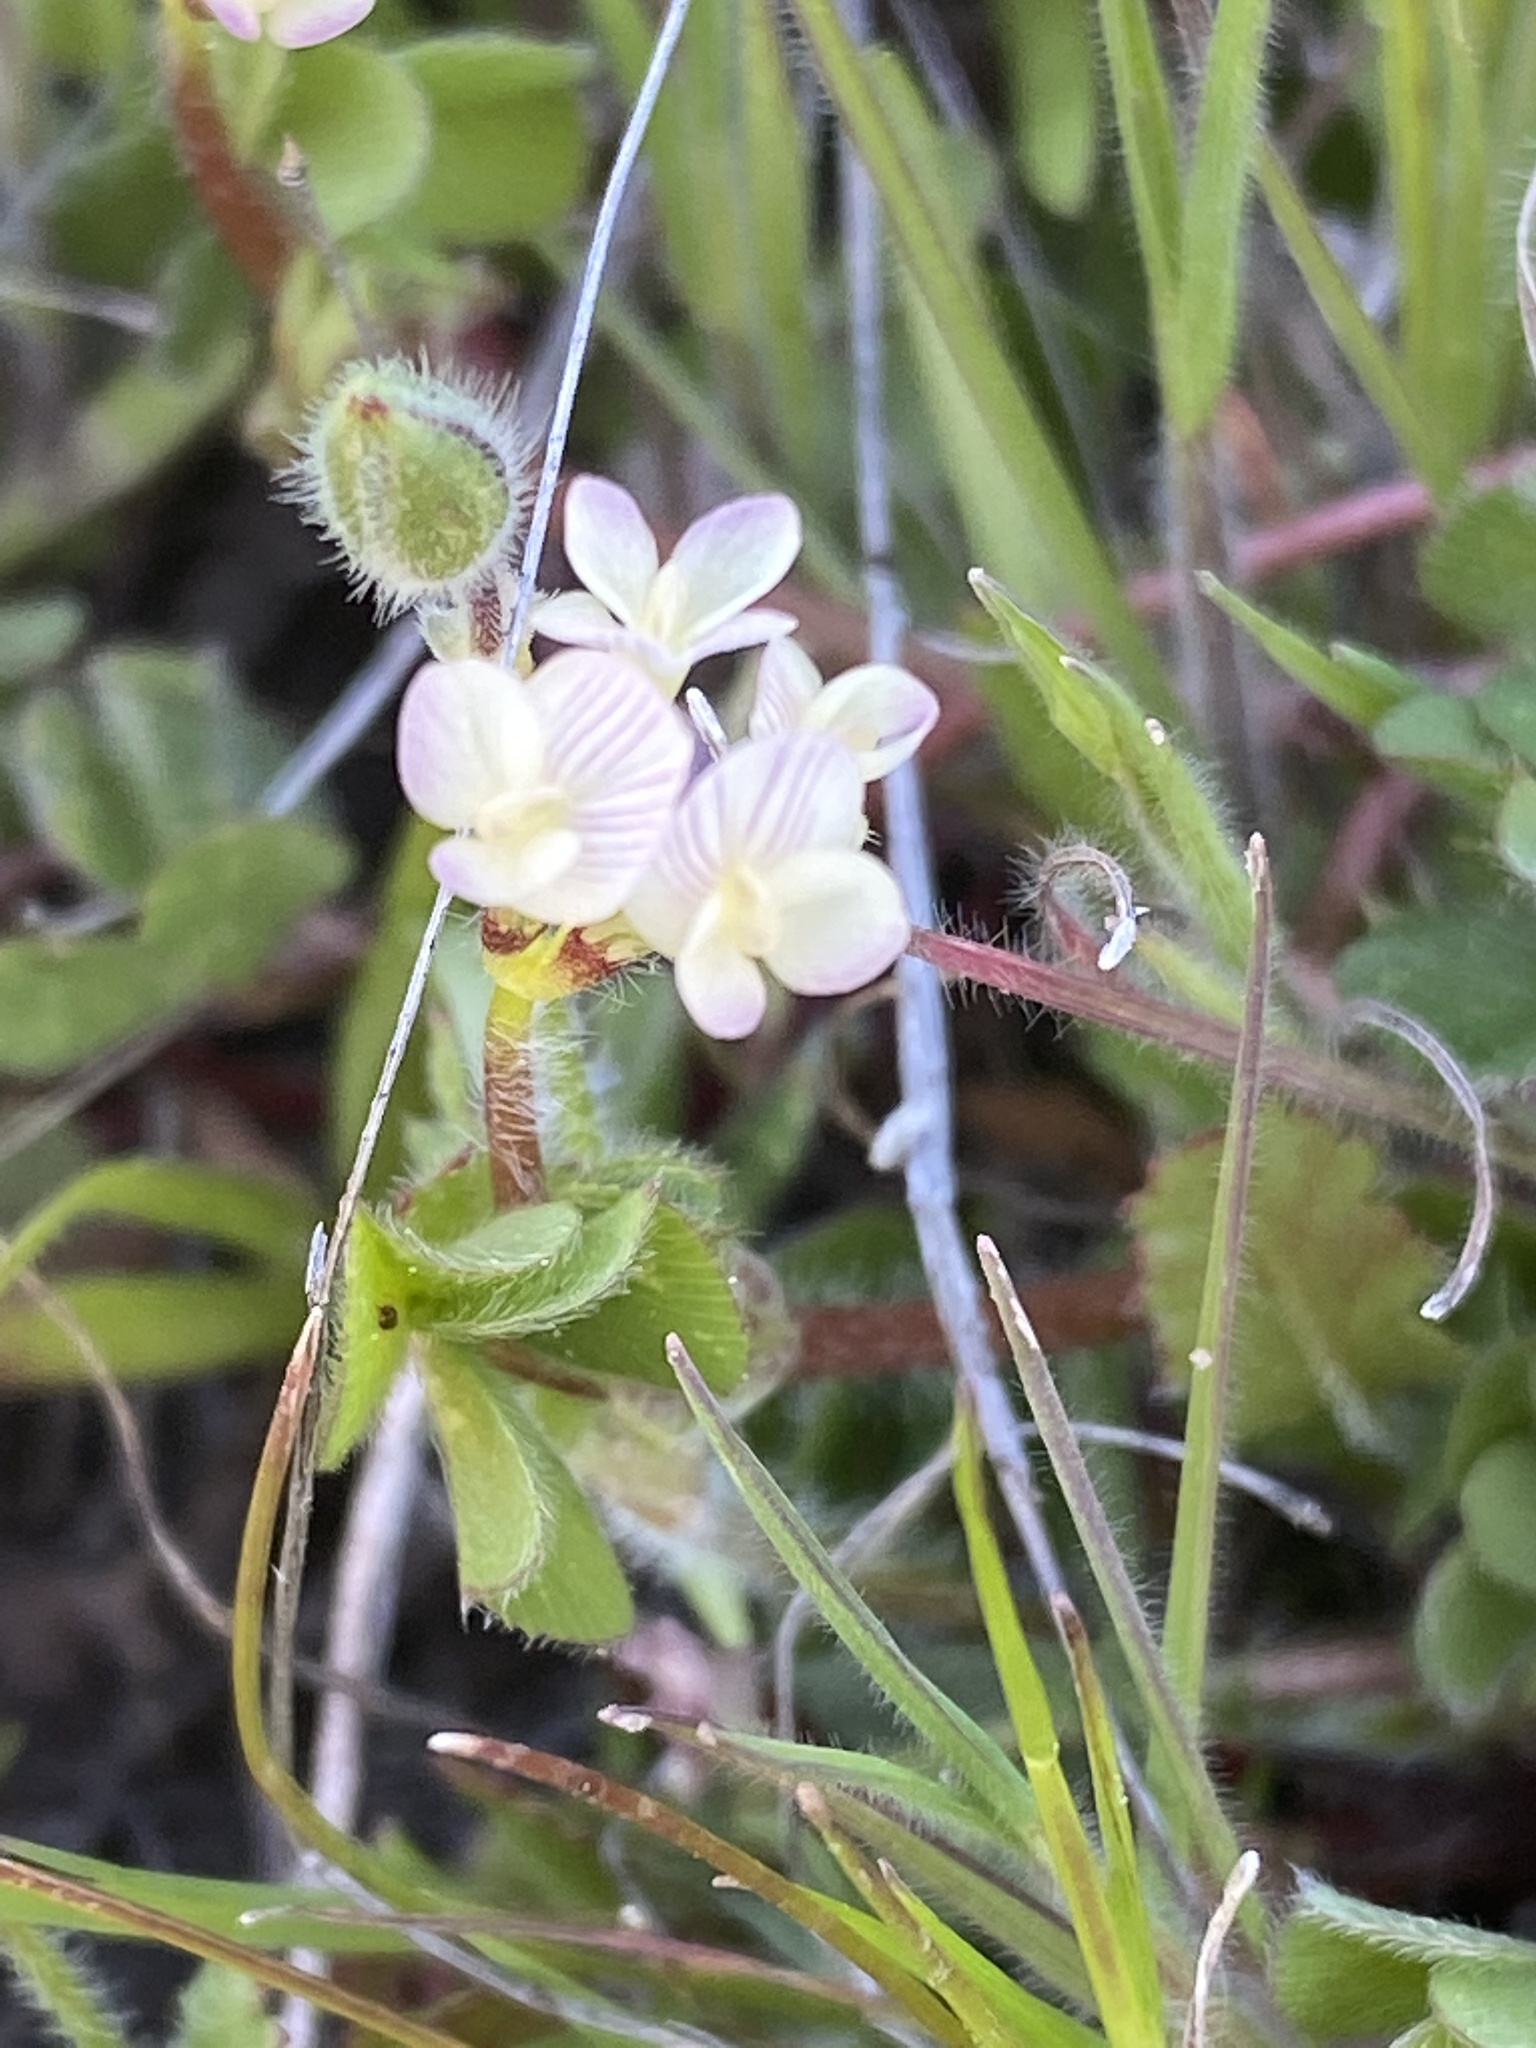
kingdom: Plantae
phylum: Tracheophyta
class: Magnoliopsida
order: Fabales
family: Fabaceae
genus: Trifolium
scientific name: Trifolium subterraneum
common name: Subterranean clover
